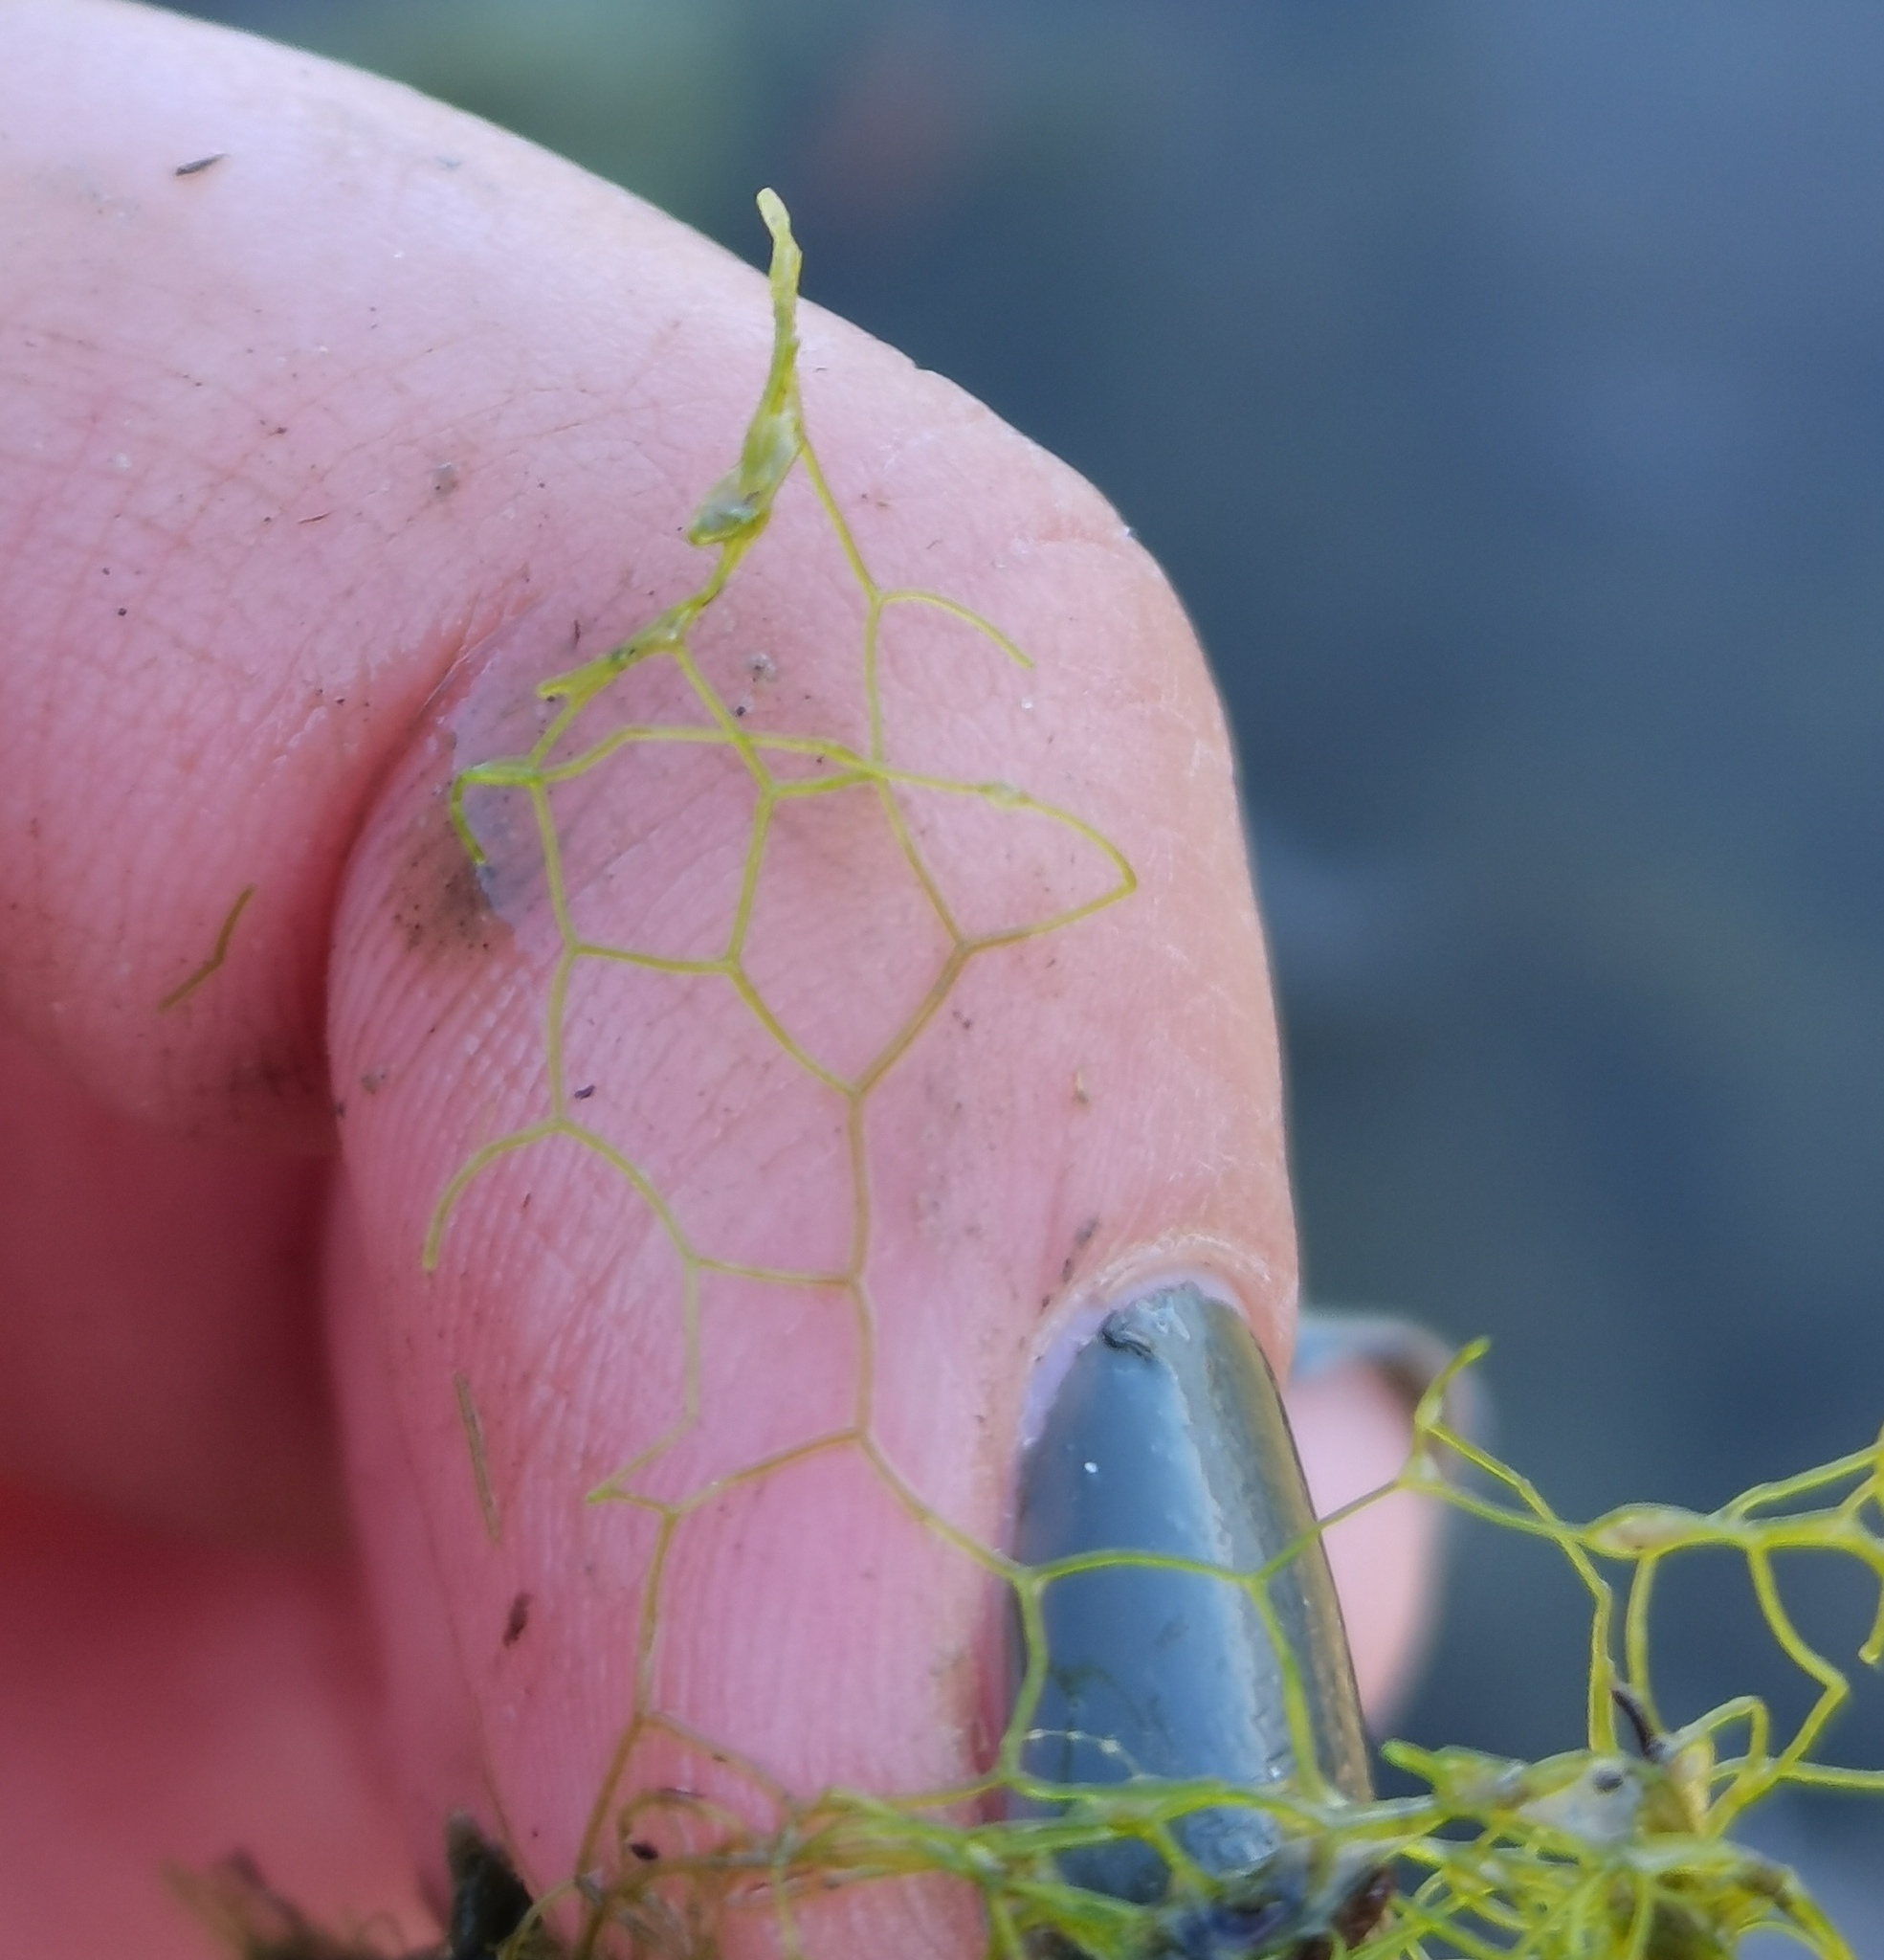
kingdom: Plantae
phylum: Chlorophyta
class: Chlorophyceae
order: Sphaeropleales
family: Hydrodictyaceae
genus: Hydrodictyon
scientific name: Hydrodictyon reticulatum
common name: Water net
